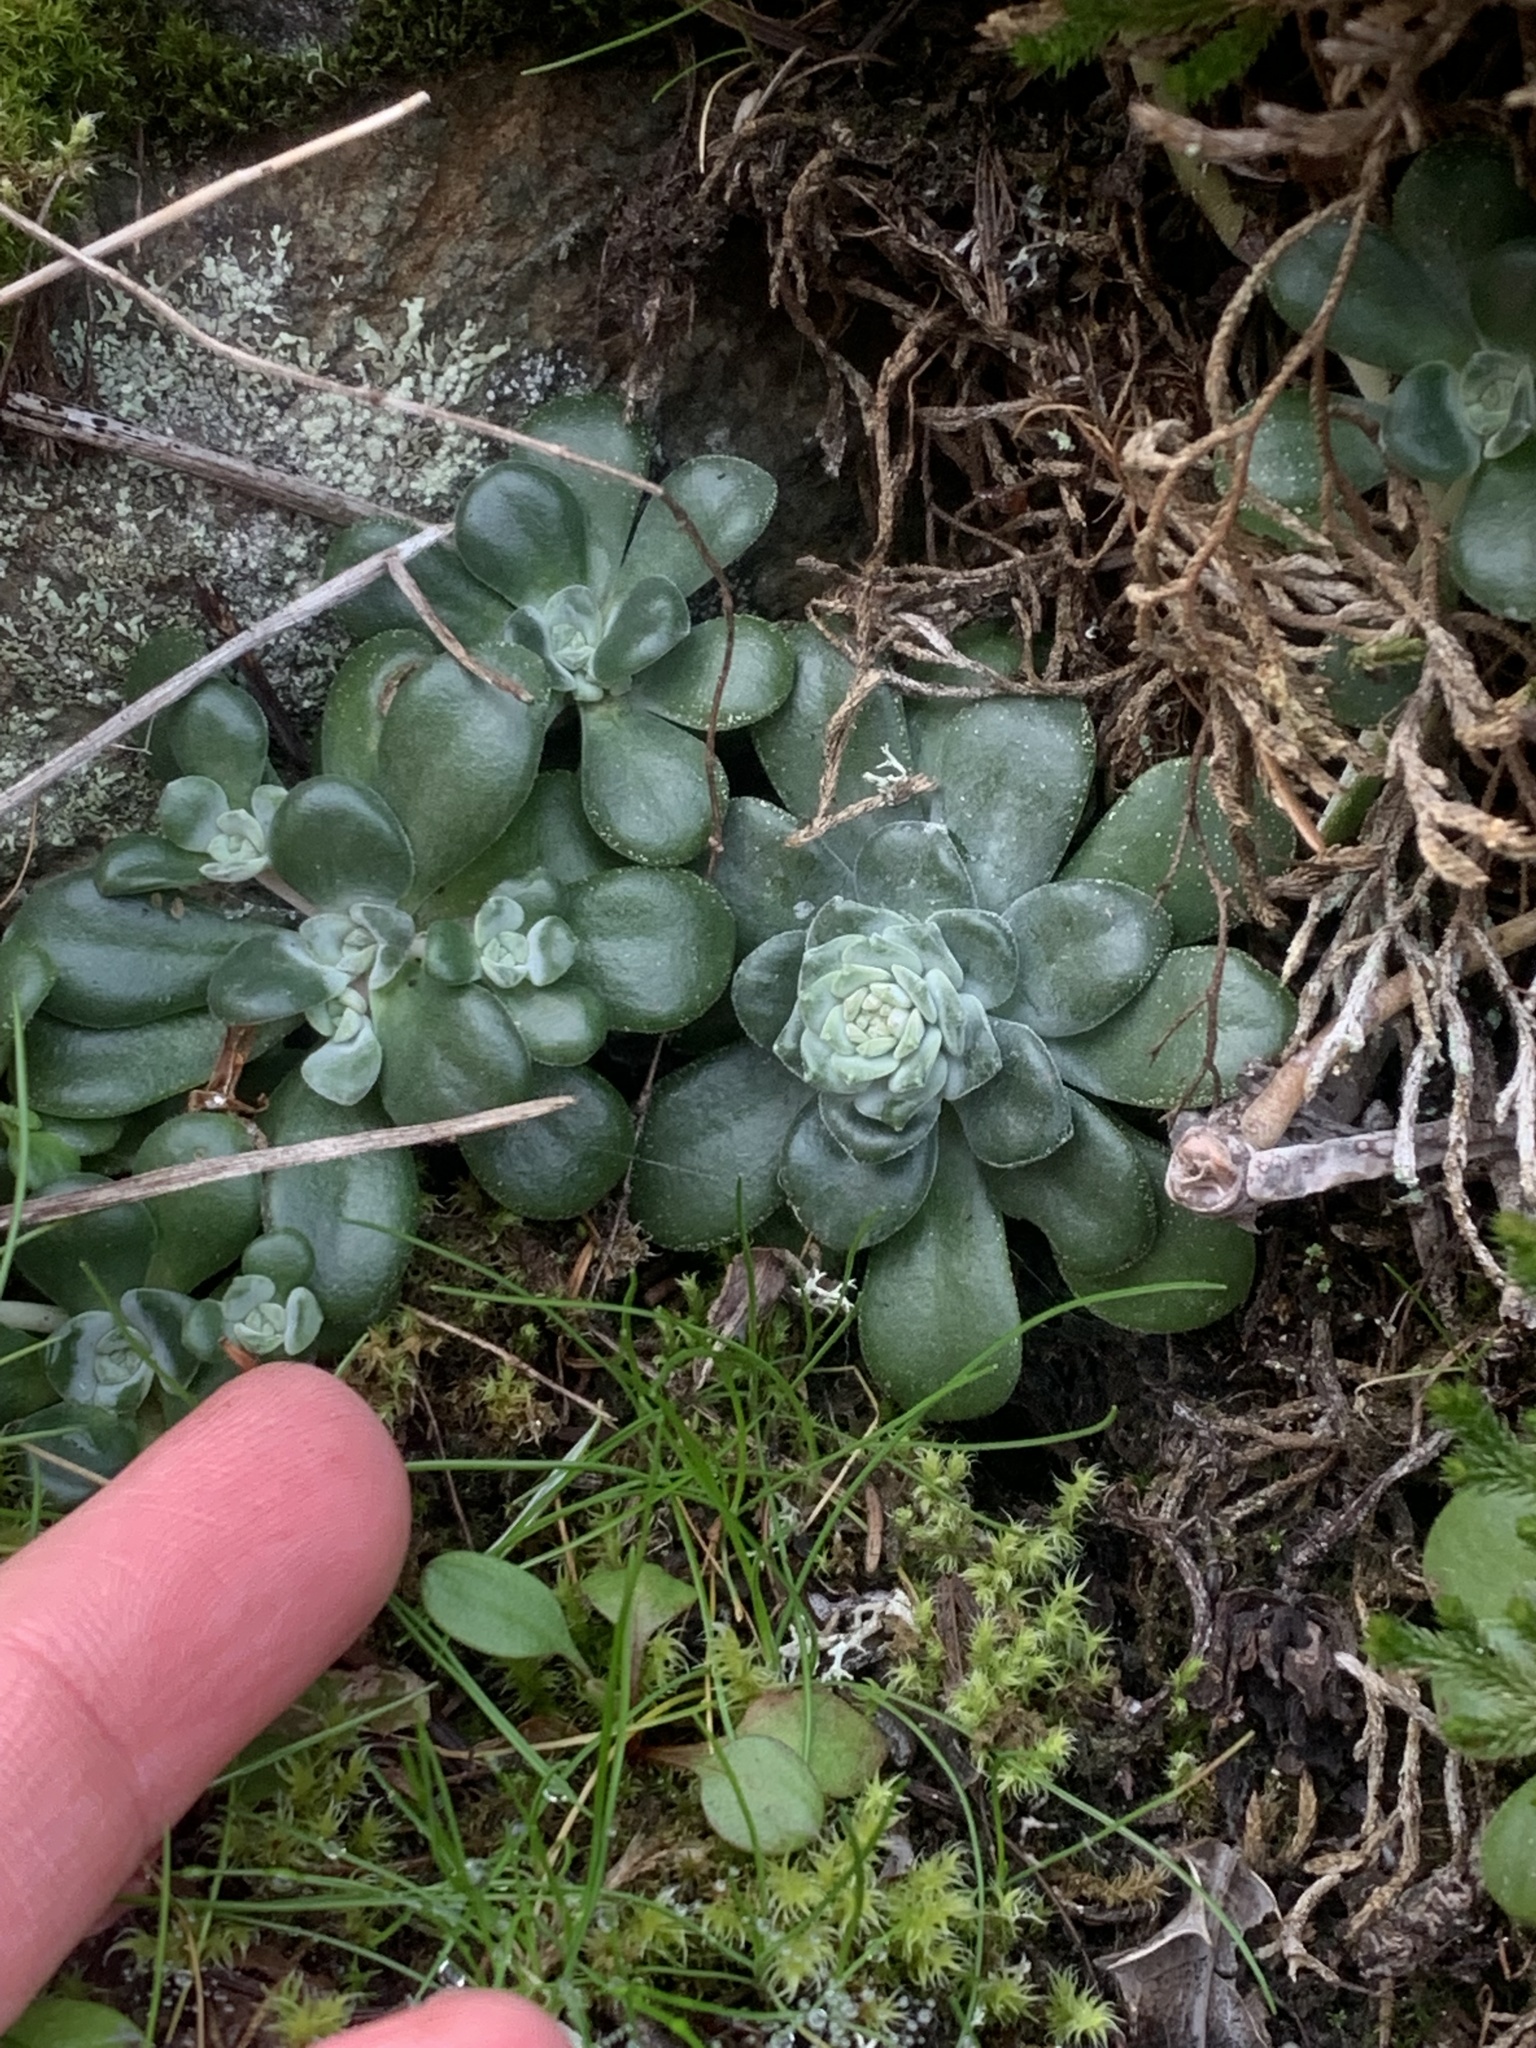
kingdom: Plantae
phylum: Tracheophyta
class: Magnoliopsida
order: Saxifragales
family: Crassulaceae
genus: Sedum
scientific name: Sedum spathulifolium
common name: Colorado stonecrop
